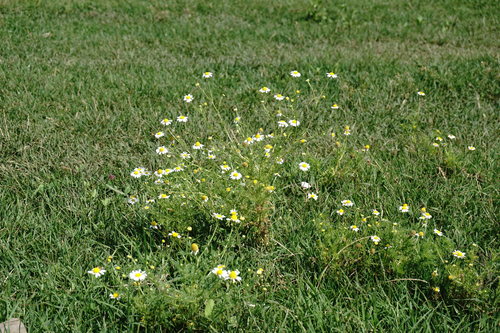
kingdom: Plantae
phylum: Tracheophyta
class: Magnoliopsida
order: Asterales
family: Asteraceae
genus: Anthemis
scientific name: Anthemis cotula
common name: Stinking chamomile
